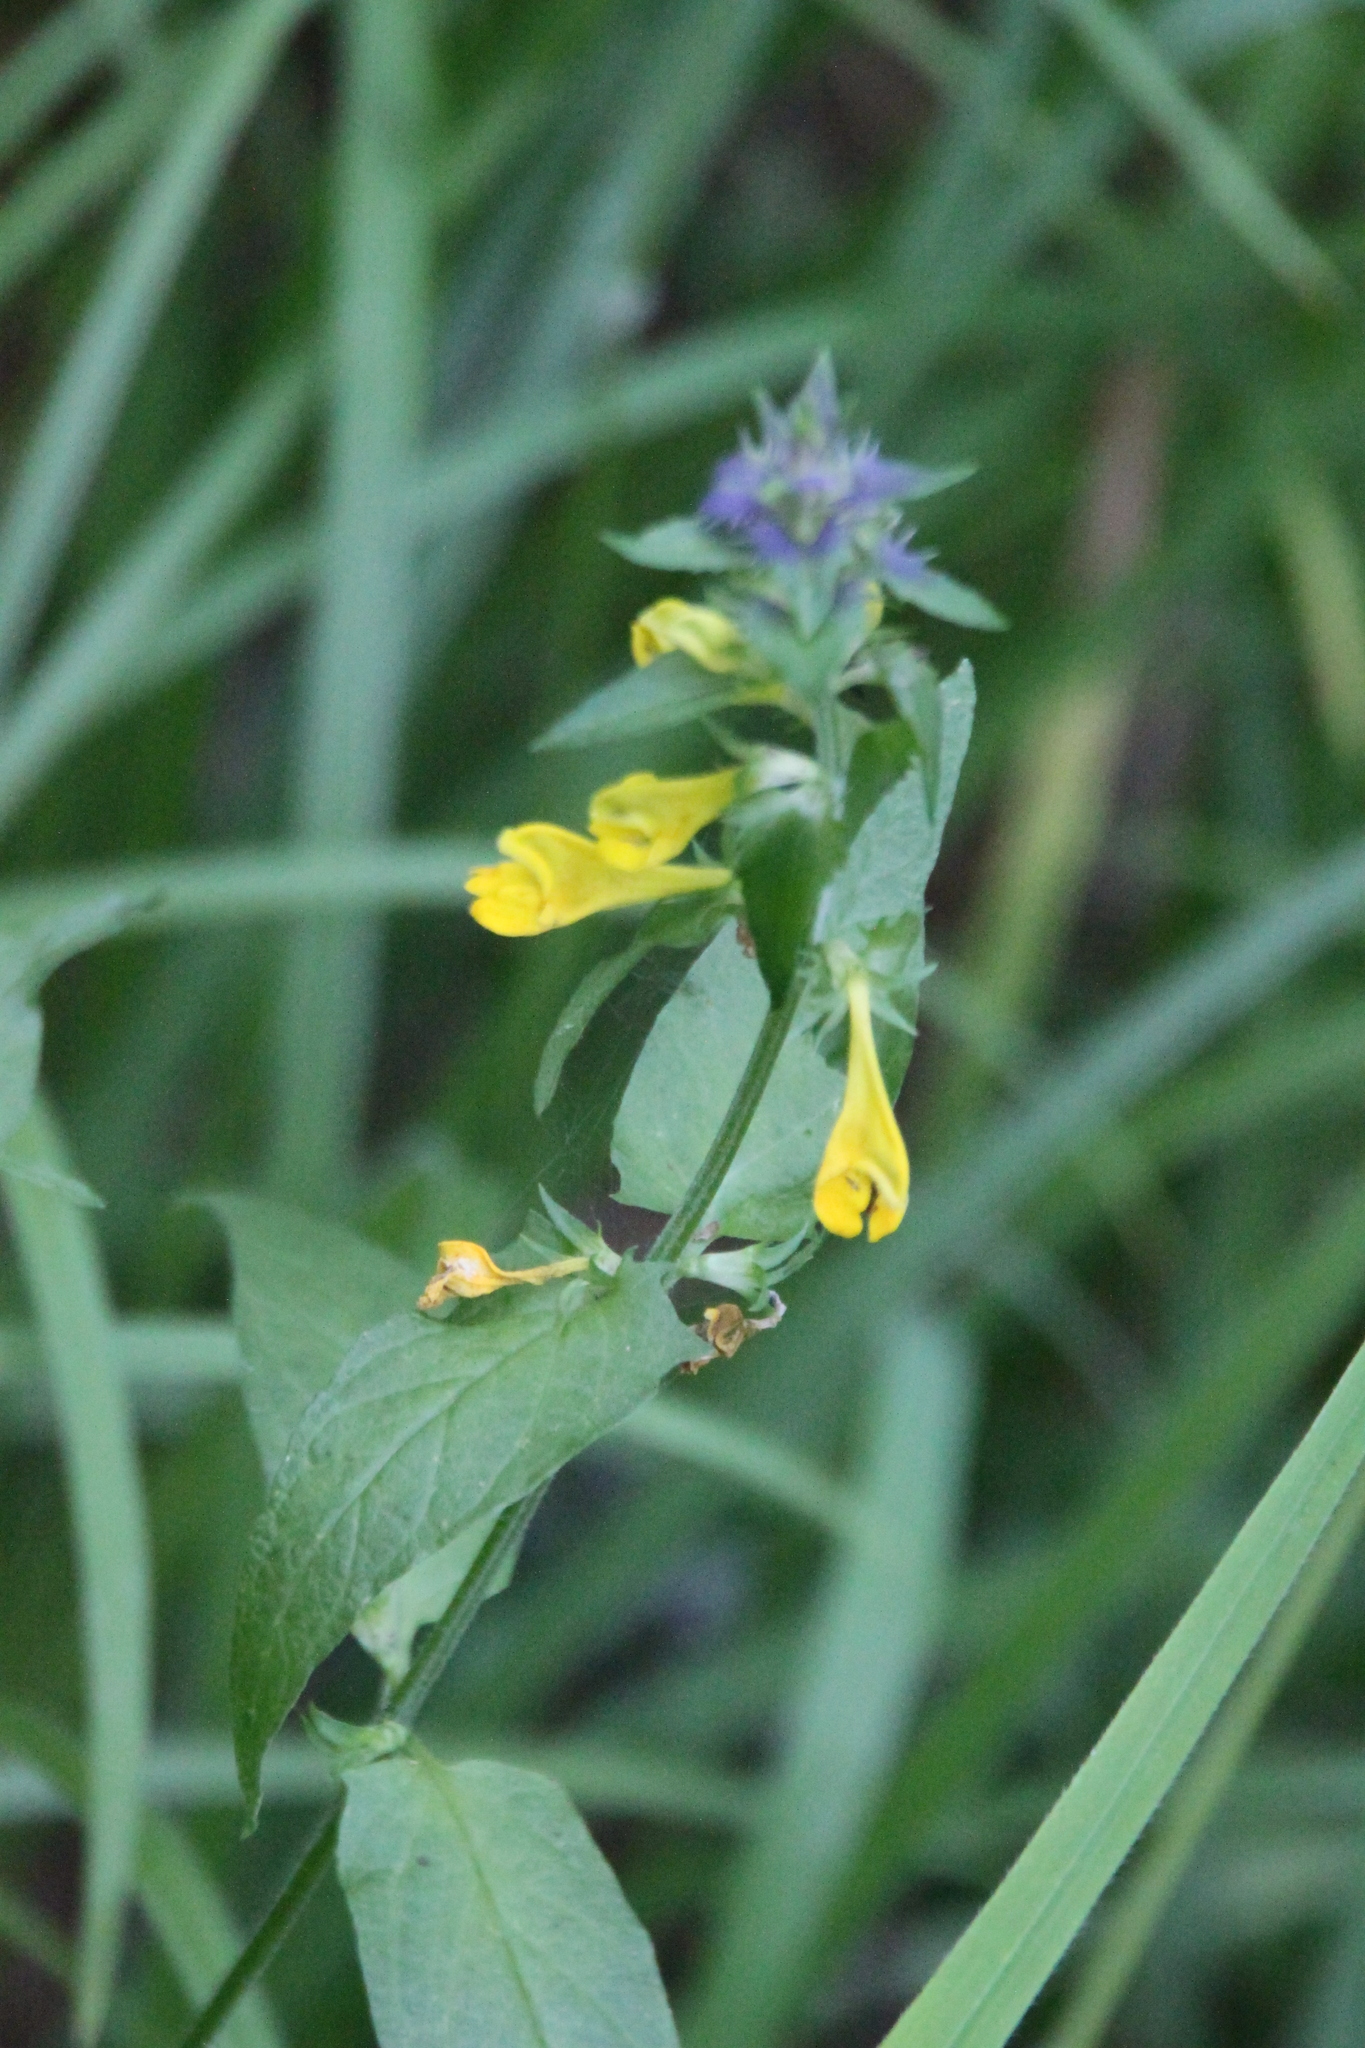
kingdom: Plantae
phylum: Tracheophyta
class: Magnoliopsida
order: Lamiales
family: Orobanchaceae
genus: Melampyrum
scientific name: Melampyrum nemorosum
